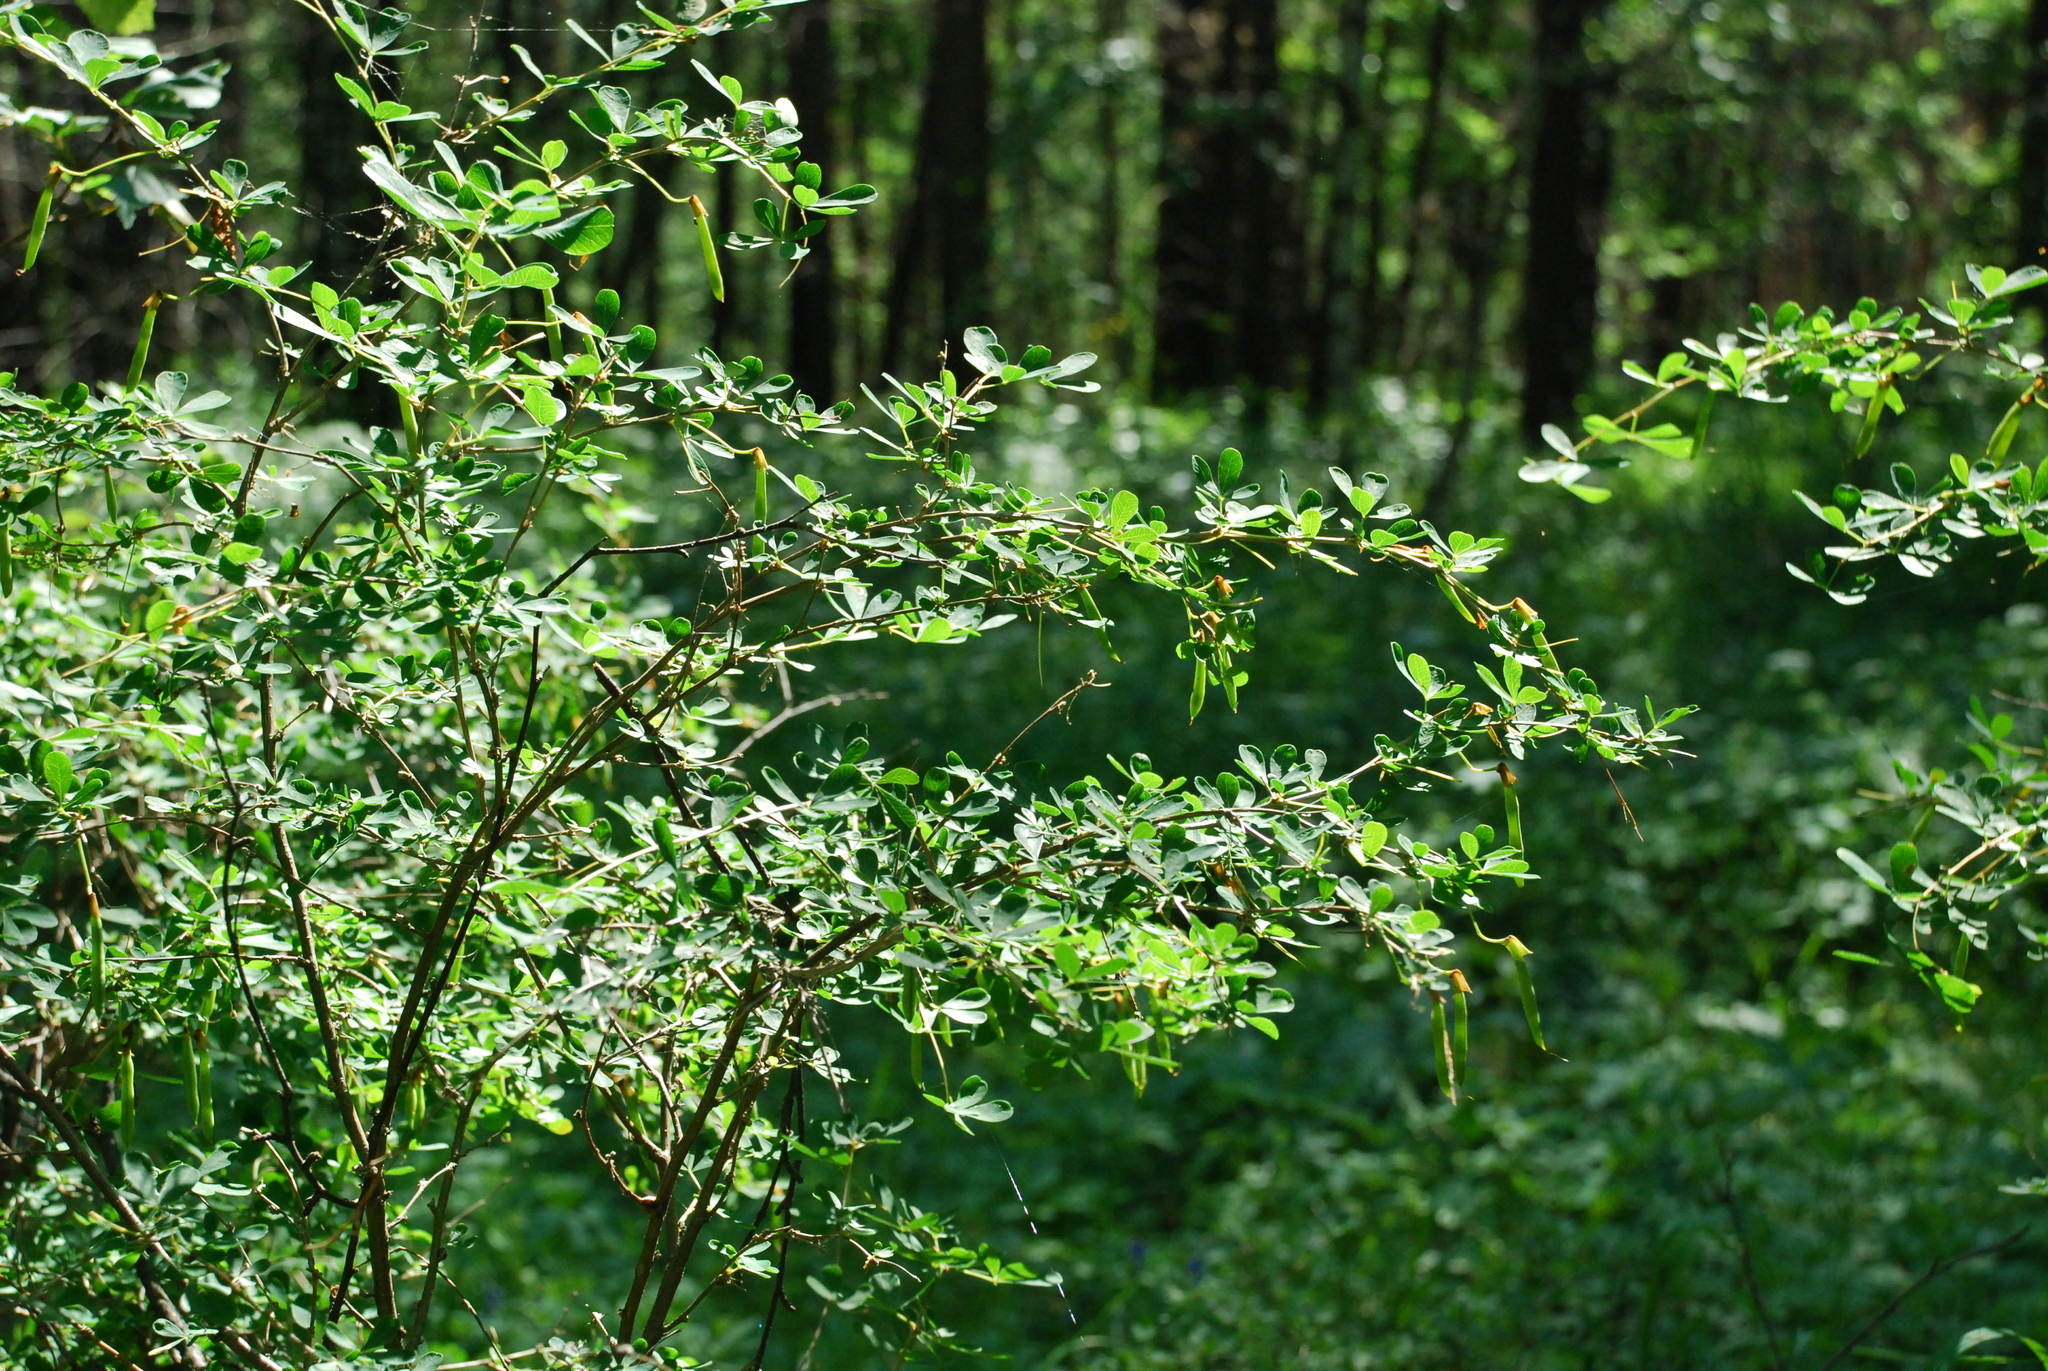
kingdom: Plantae
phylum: Tracheophyta
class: Magnoliopsida
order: Fabales
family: Fabaceae
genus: Caragana
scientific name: Caragana frutex
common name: Russian peashrub
